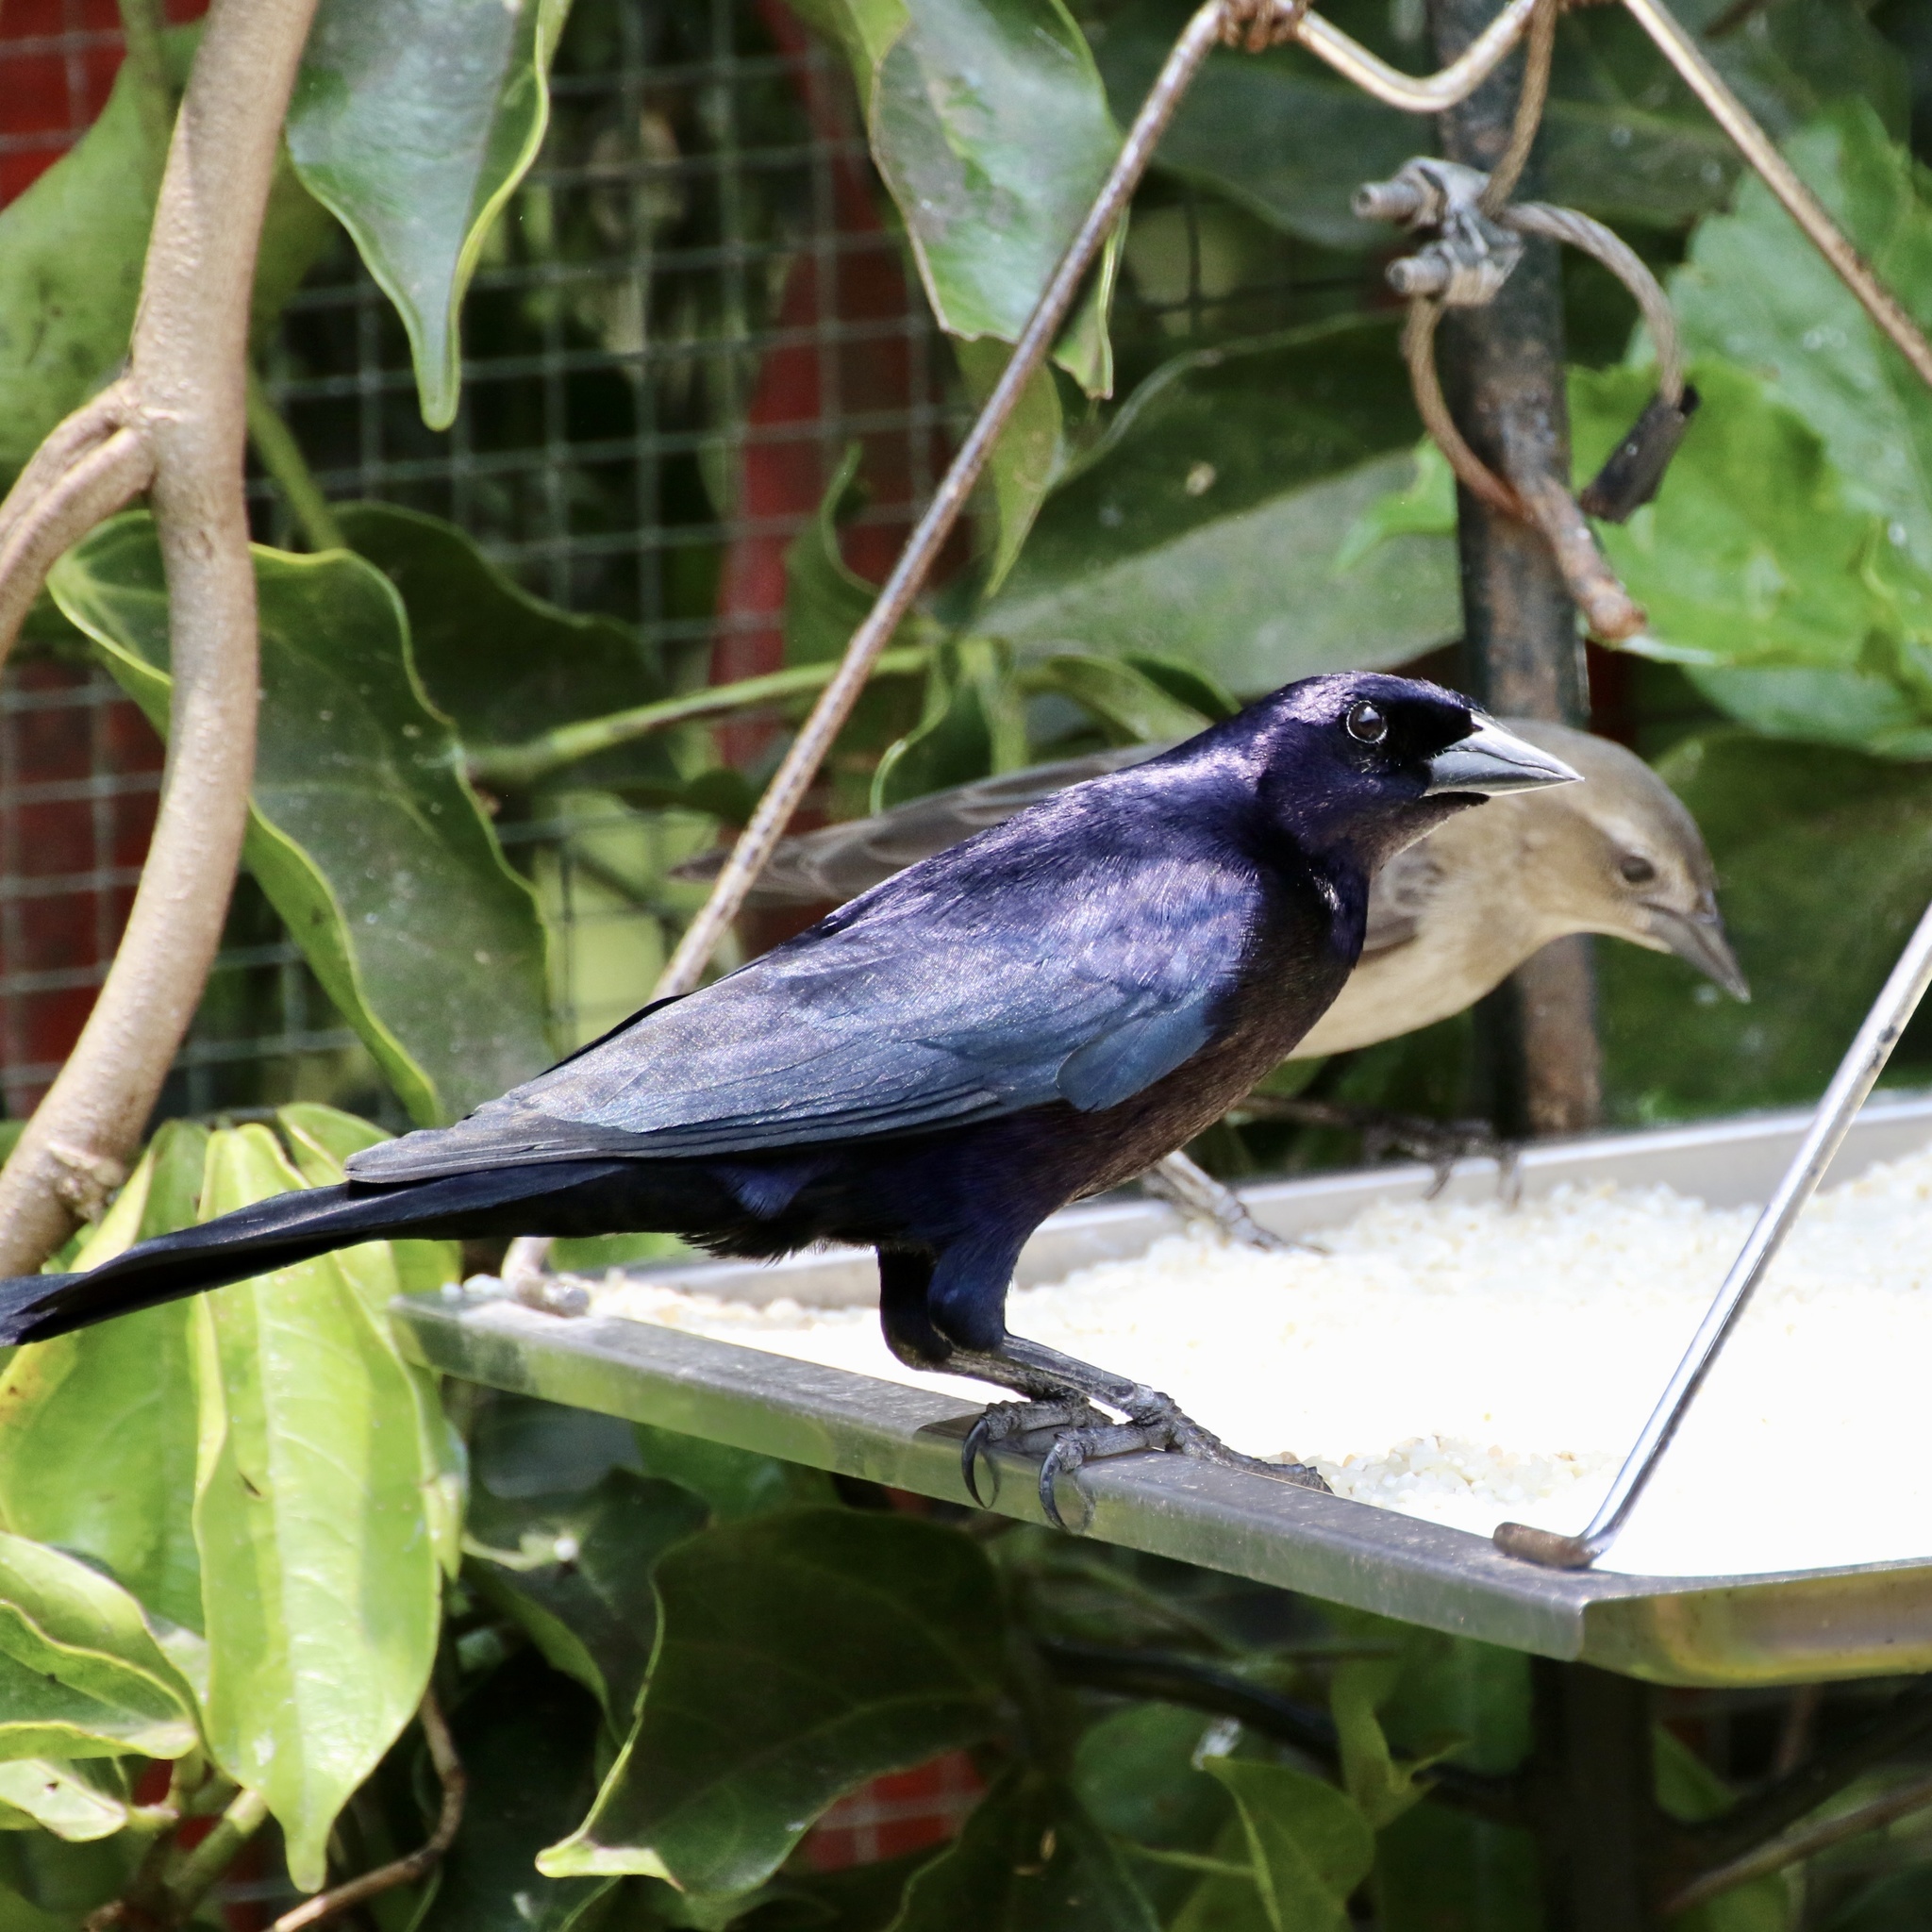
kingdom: Animalia
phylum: Chordata
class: Aves
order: Passeriformes
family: Icteridae
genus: Molothrus
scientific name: Molothrus bonariensis
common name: Shiny cowbird
